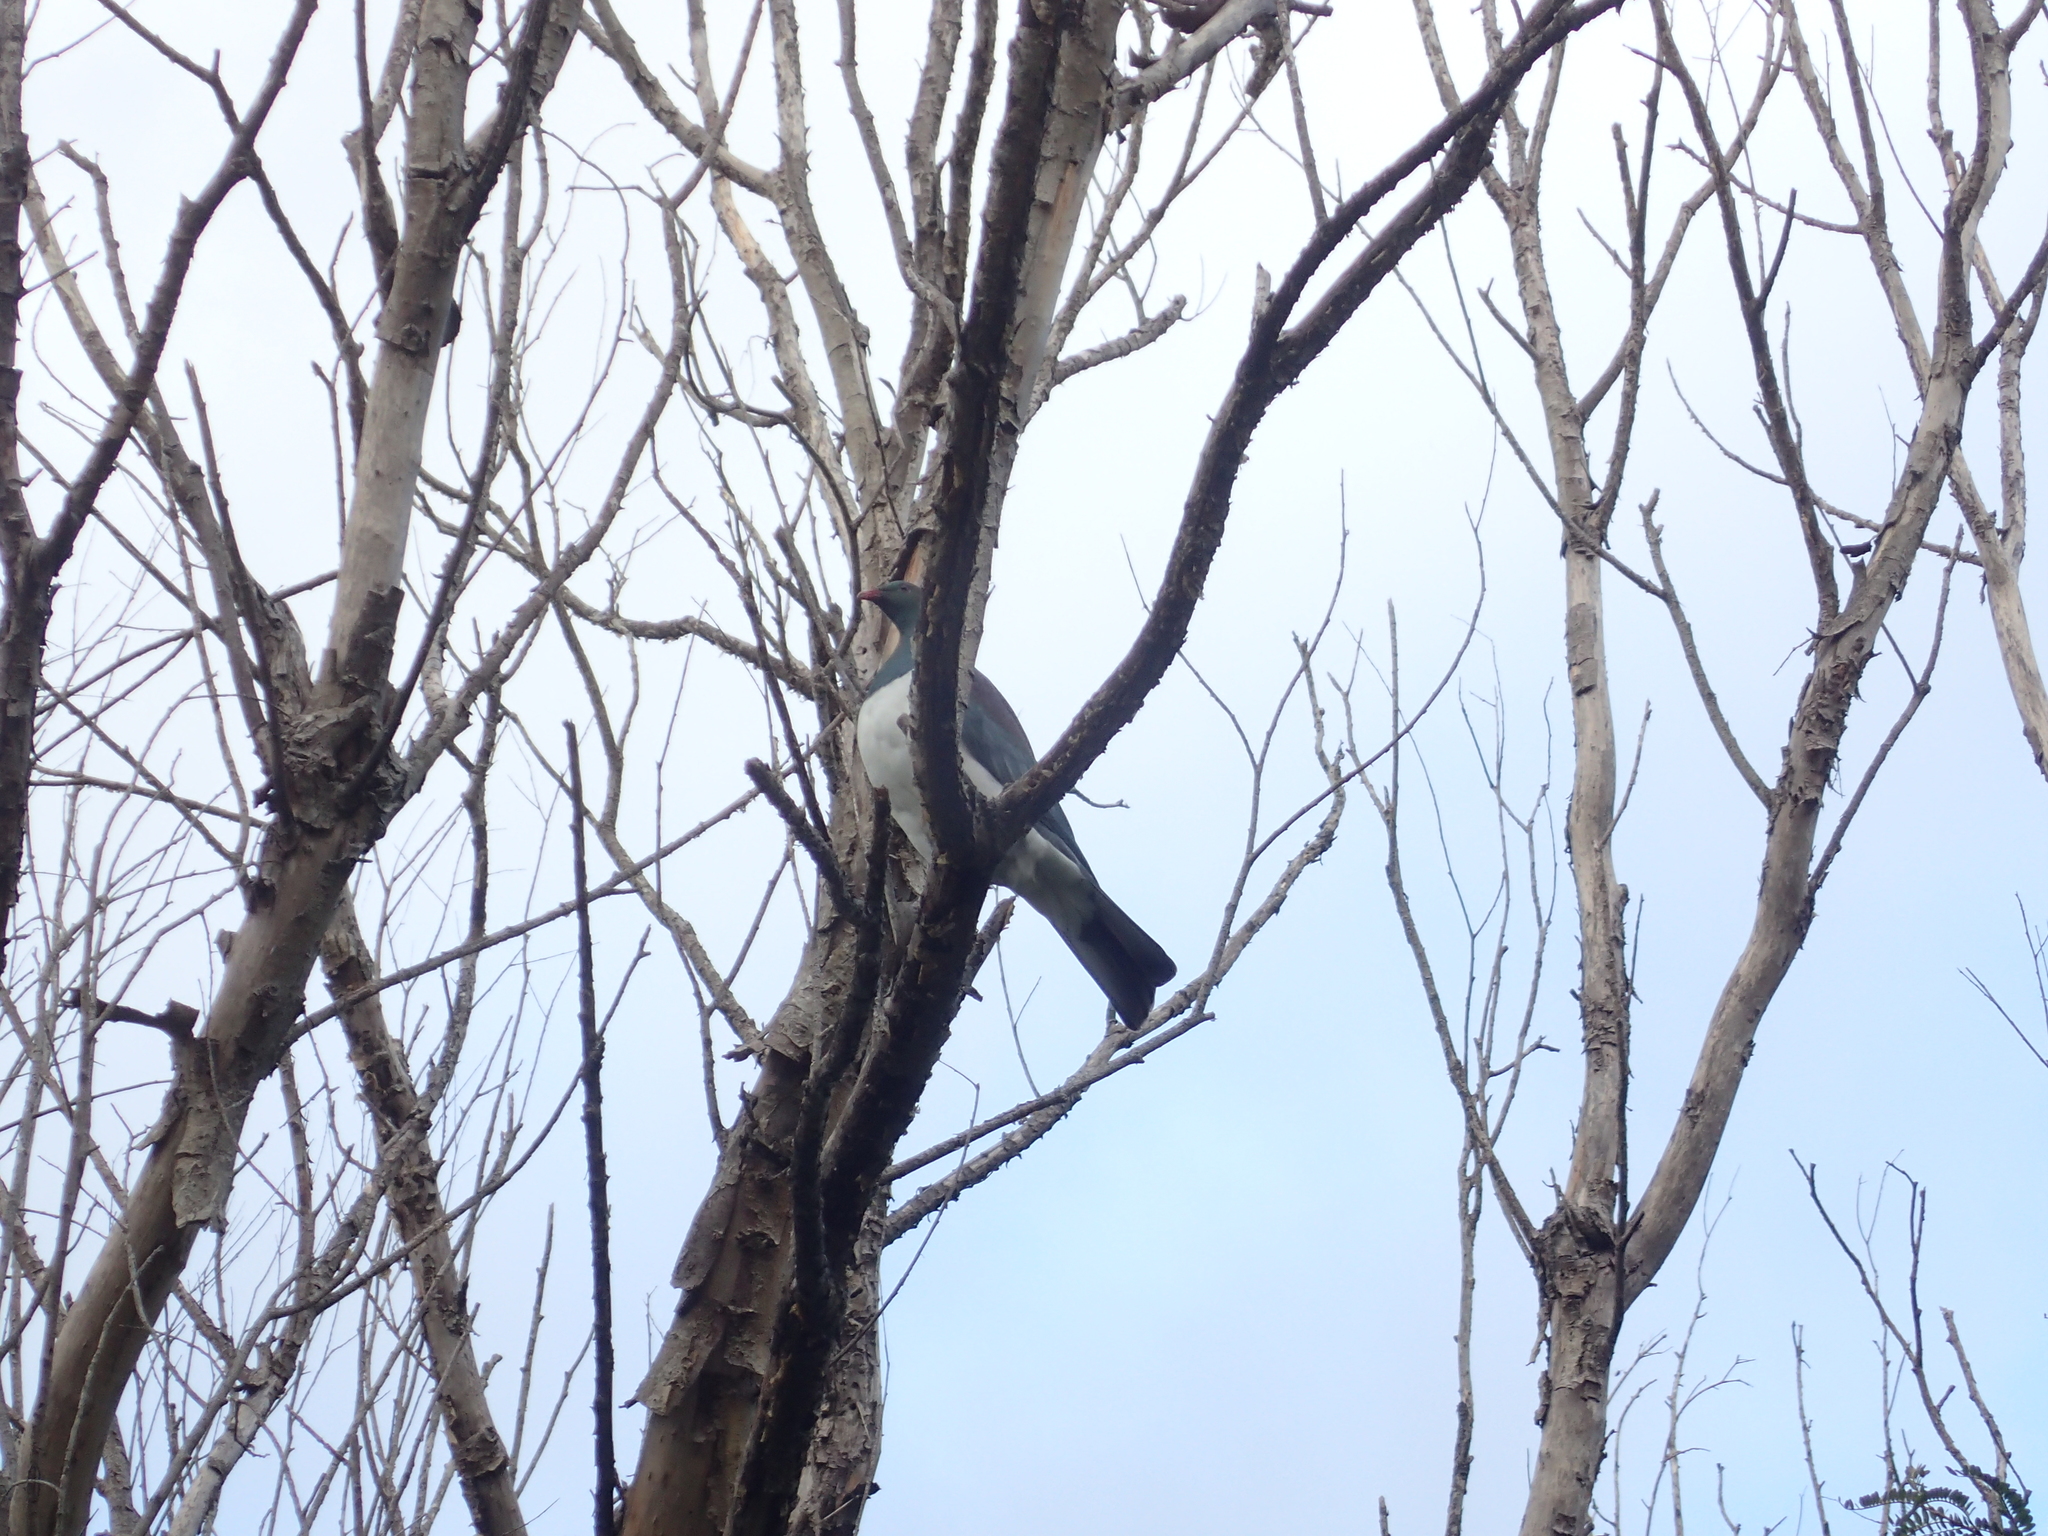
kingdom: Animalia
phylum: Chordata
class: Aves
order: Columbiformes
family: Columbidae
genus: Hemiphaga
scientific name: Hemiphaga novaeseelandiae
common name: New zealand pigeon
